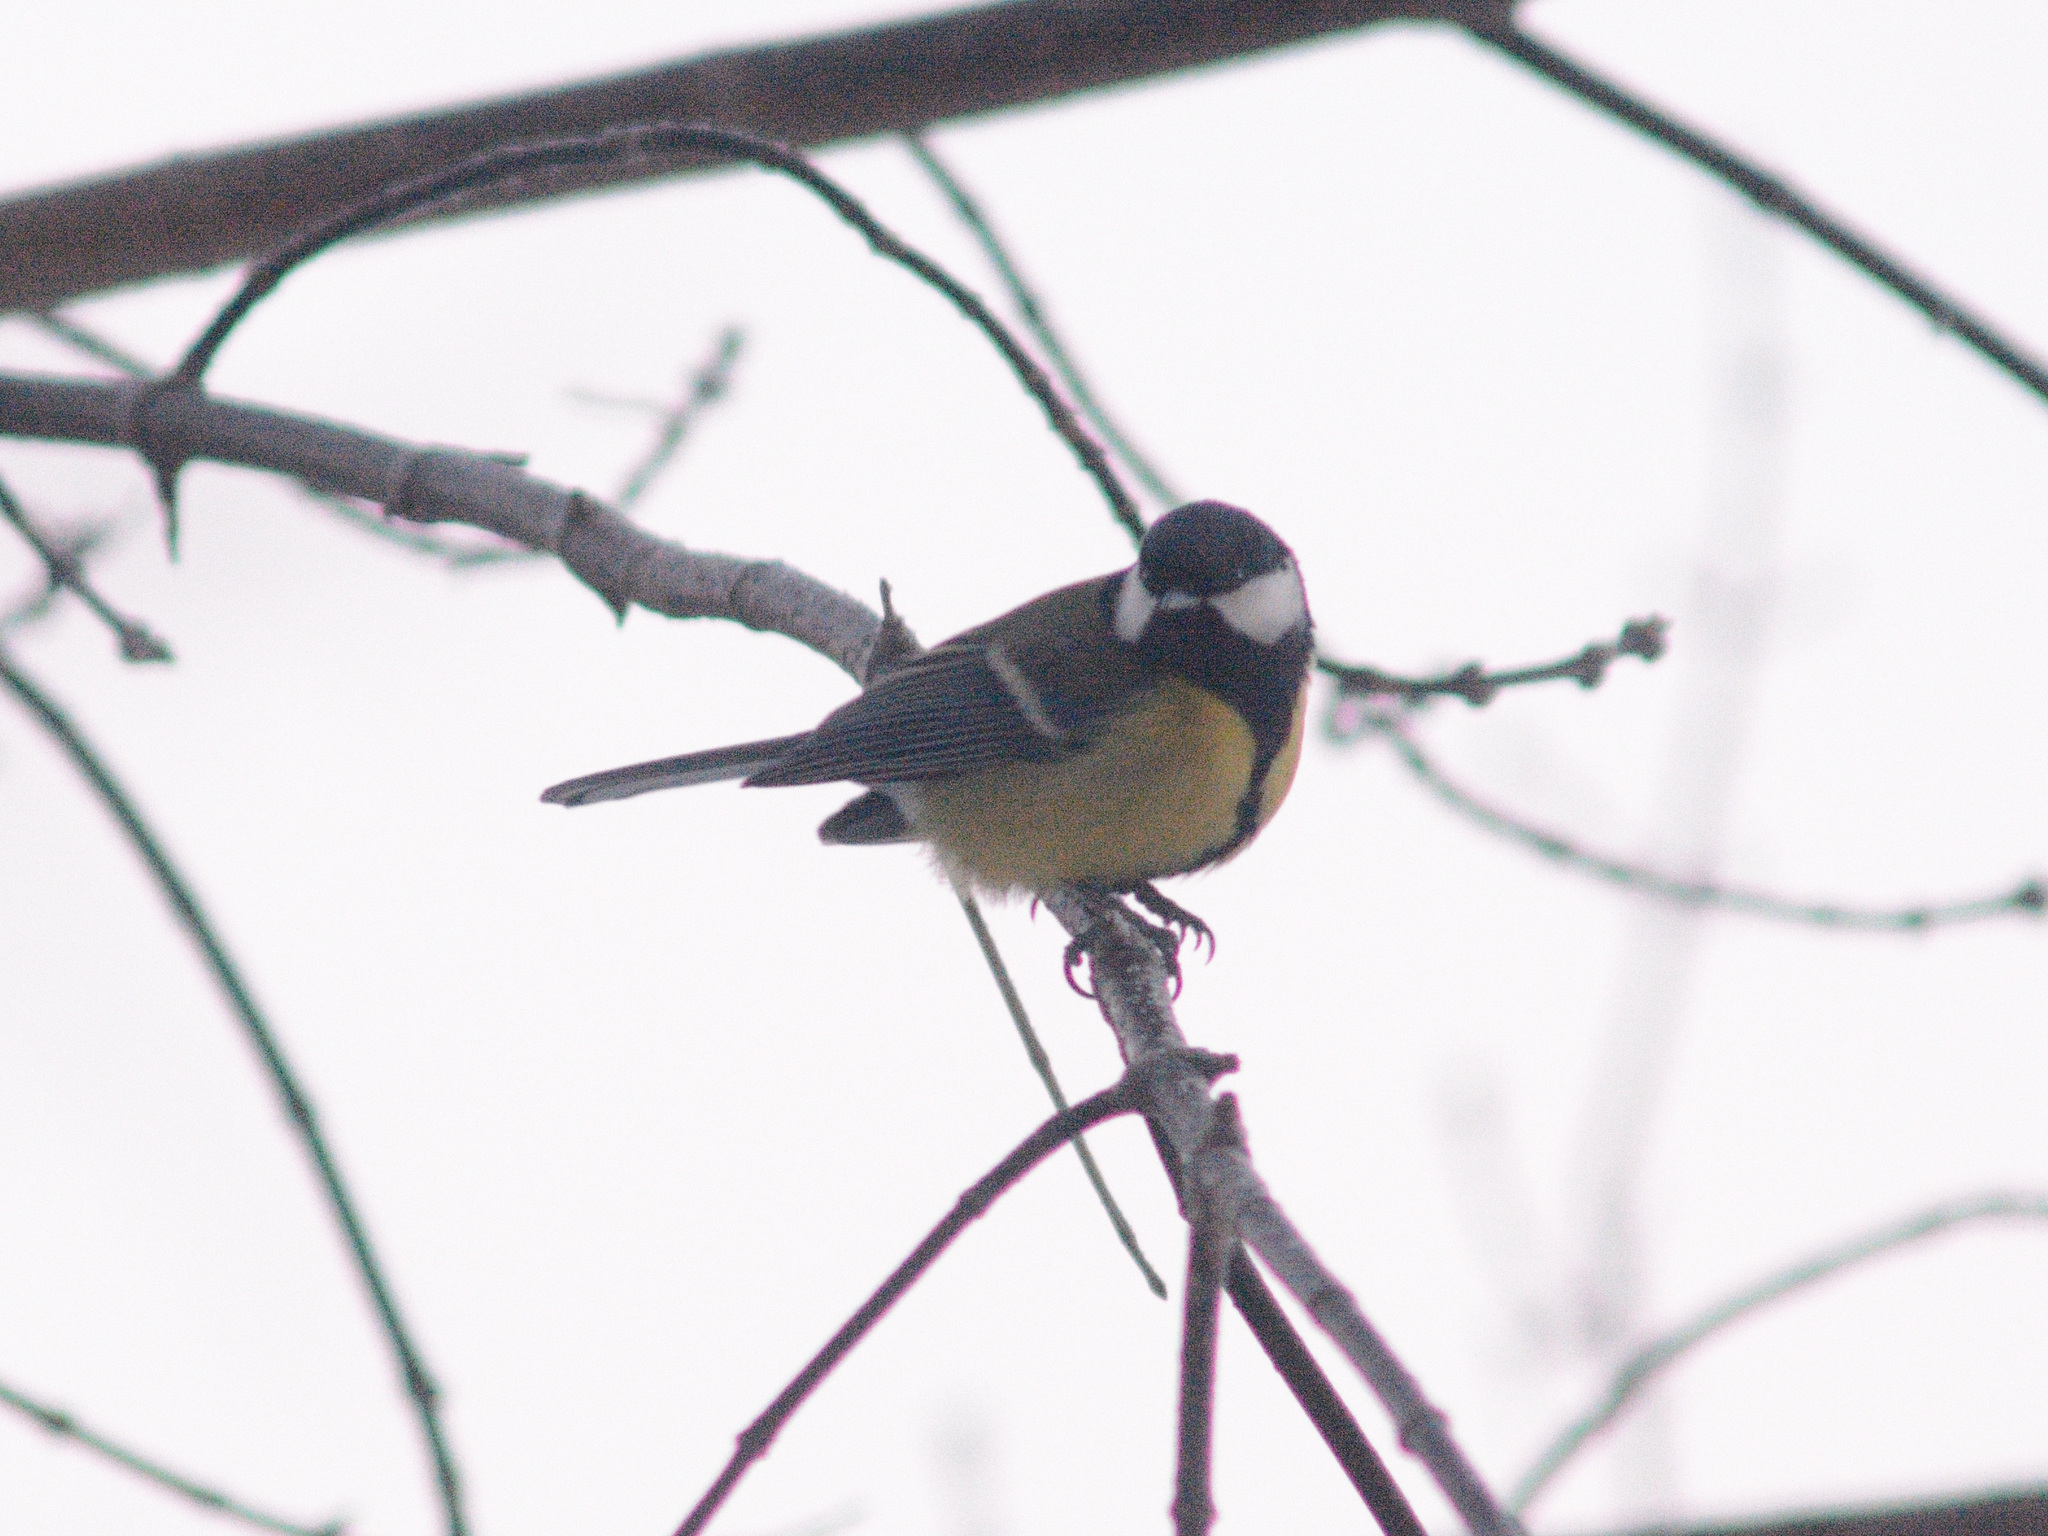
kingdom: Animalia
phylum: Chordata
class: Aves
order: Passeriformes
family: Paridae
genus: Parus
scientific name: Parus major
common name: Great tit
